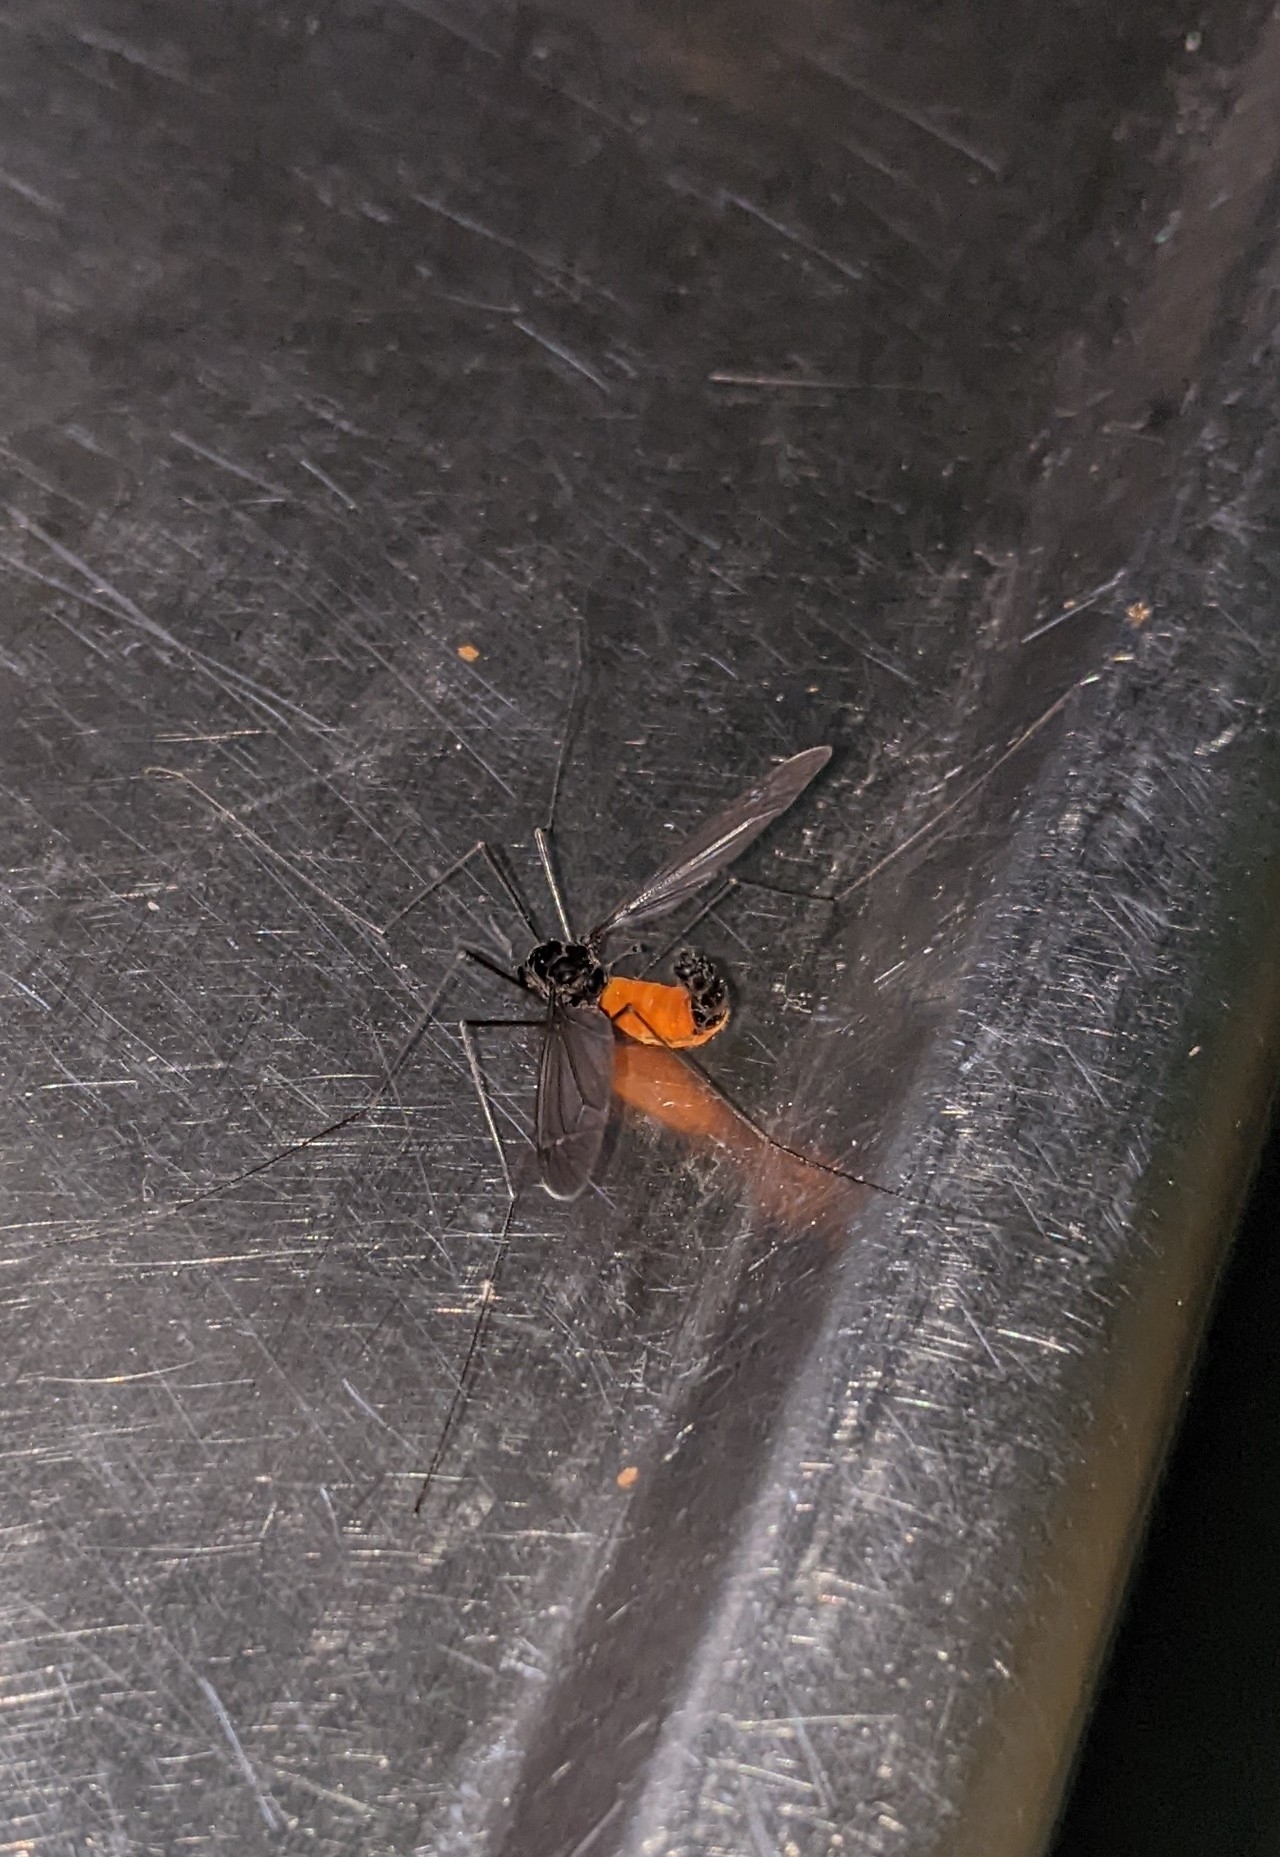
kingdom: Animalia
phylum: Arthropoda
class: Insecta
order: Diptera
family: Tipulidae
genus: Tipula
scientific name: Tipula holoserica
